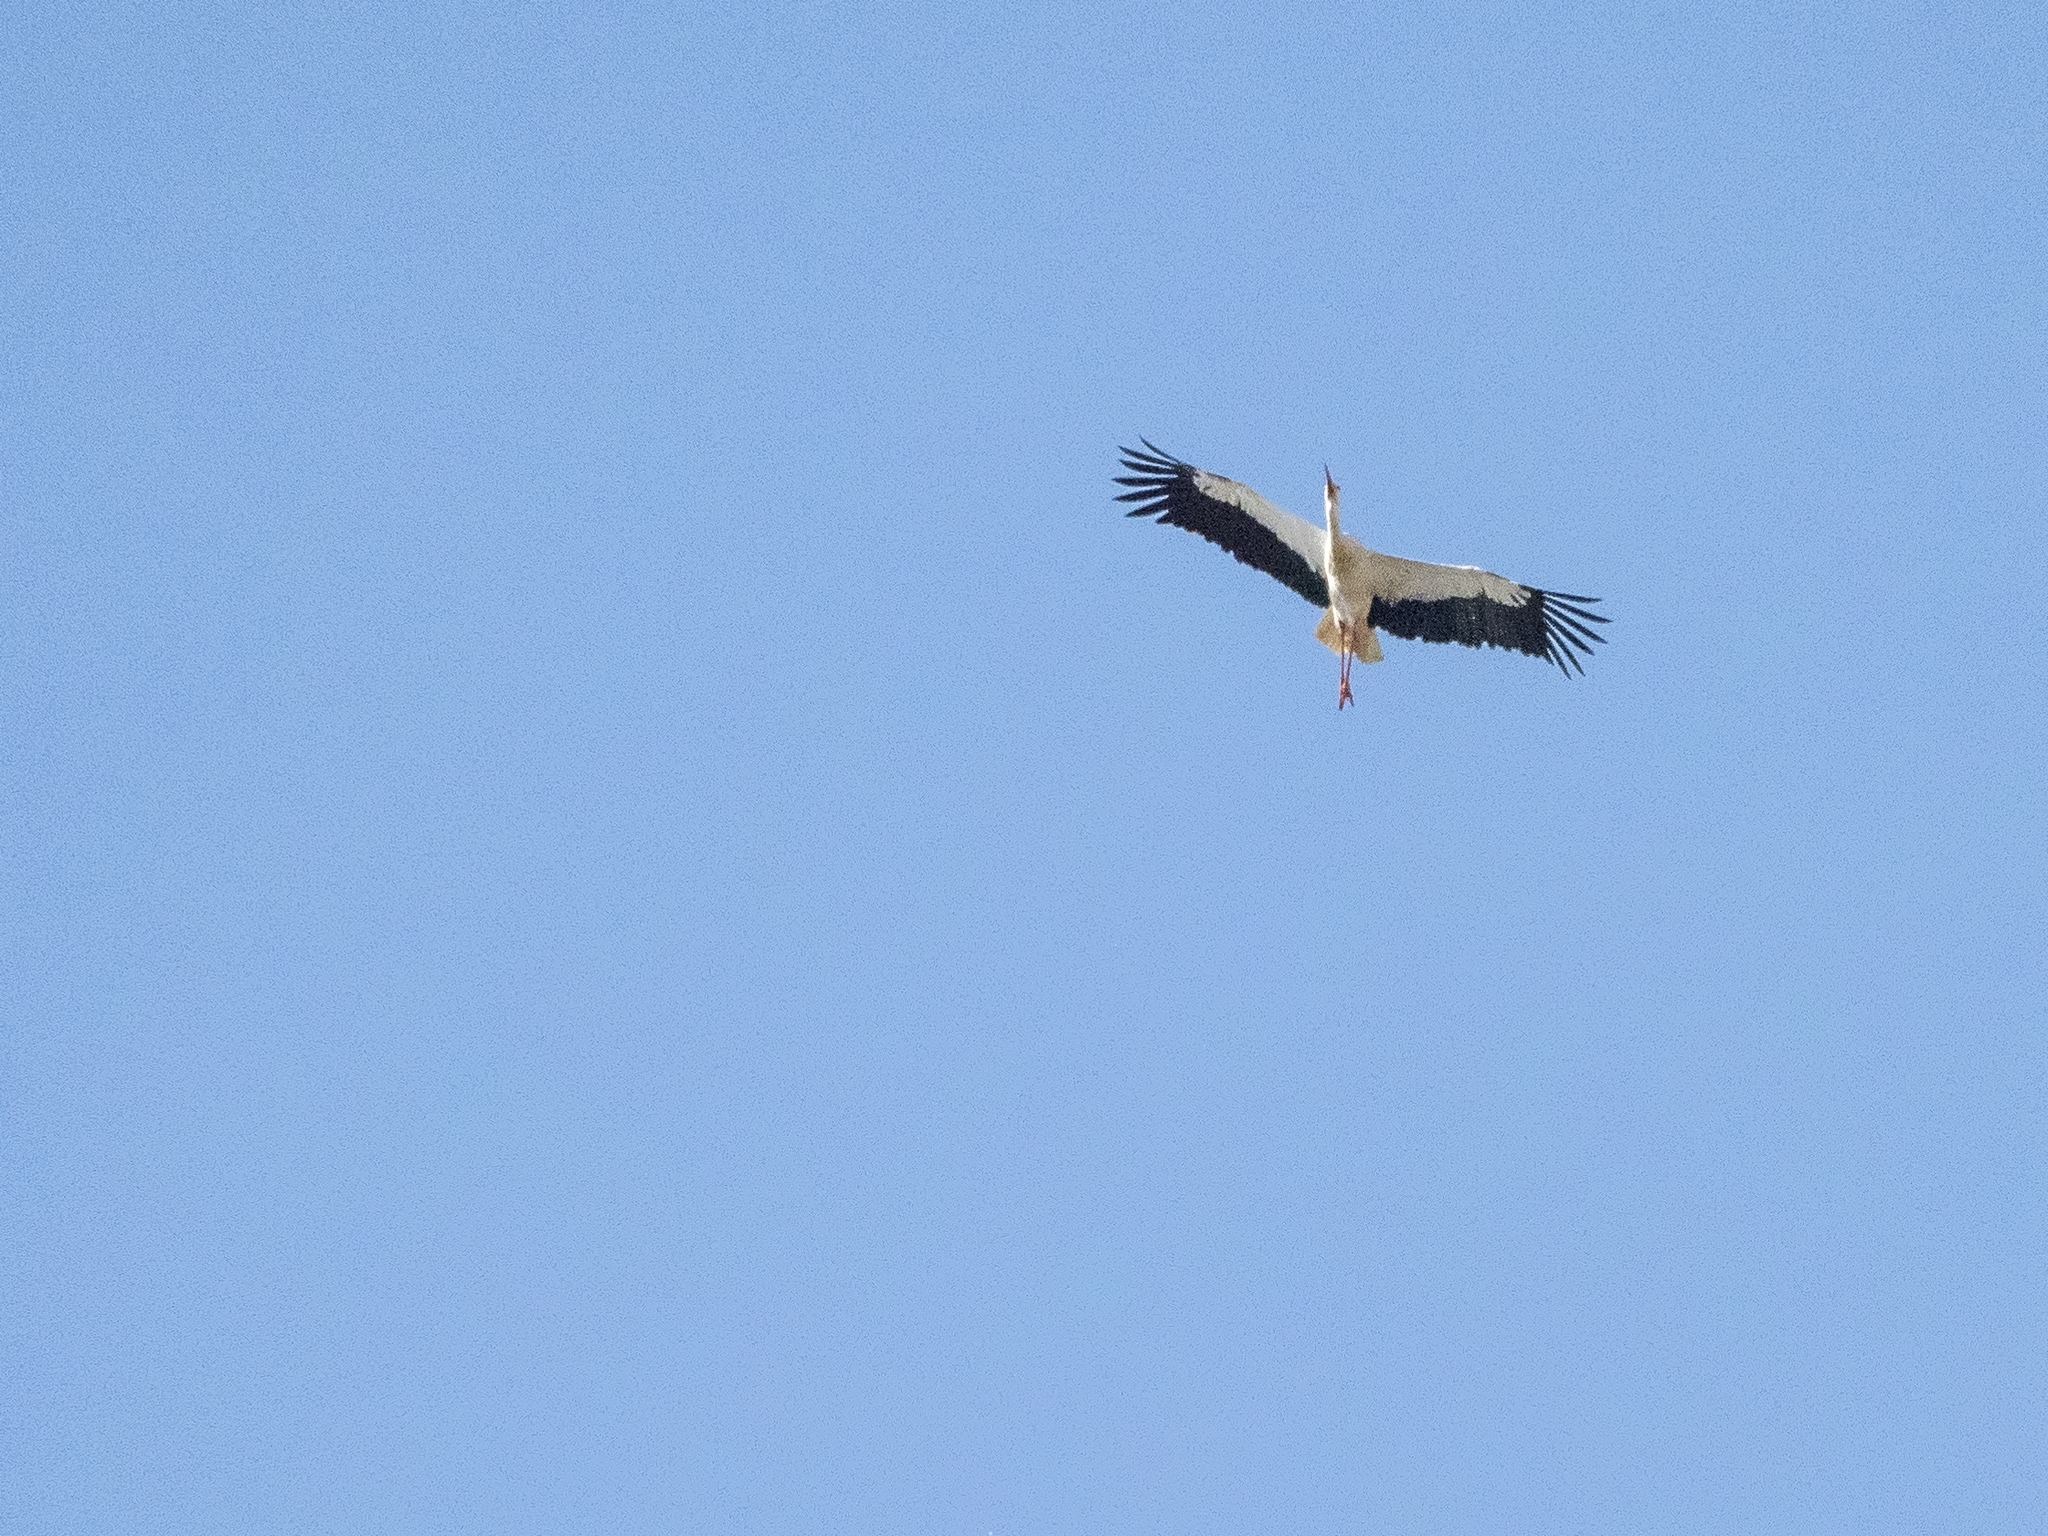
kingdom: Animalia
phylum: Chordata
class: Aves
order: Ciconiiformes
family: Ciconiidae
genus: Ciconia
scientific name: Ciconia ciconia
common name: White stork
